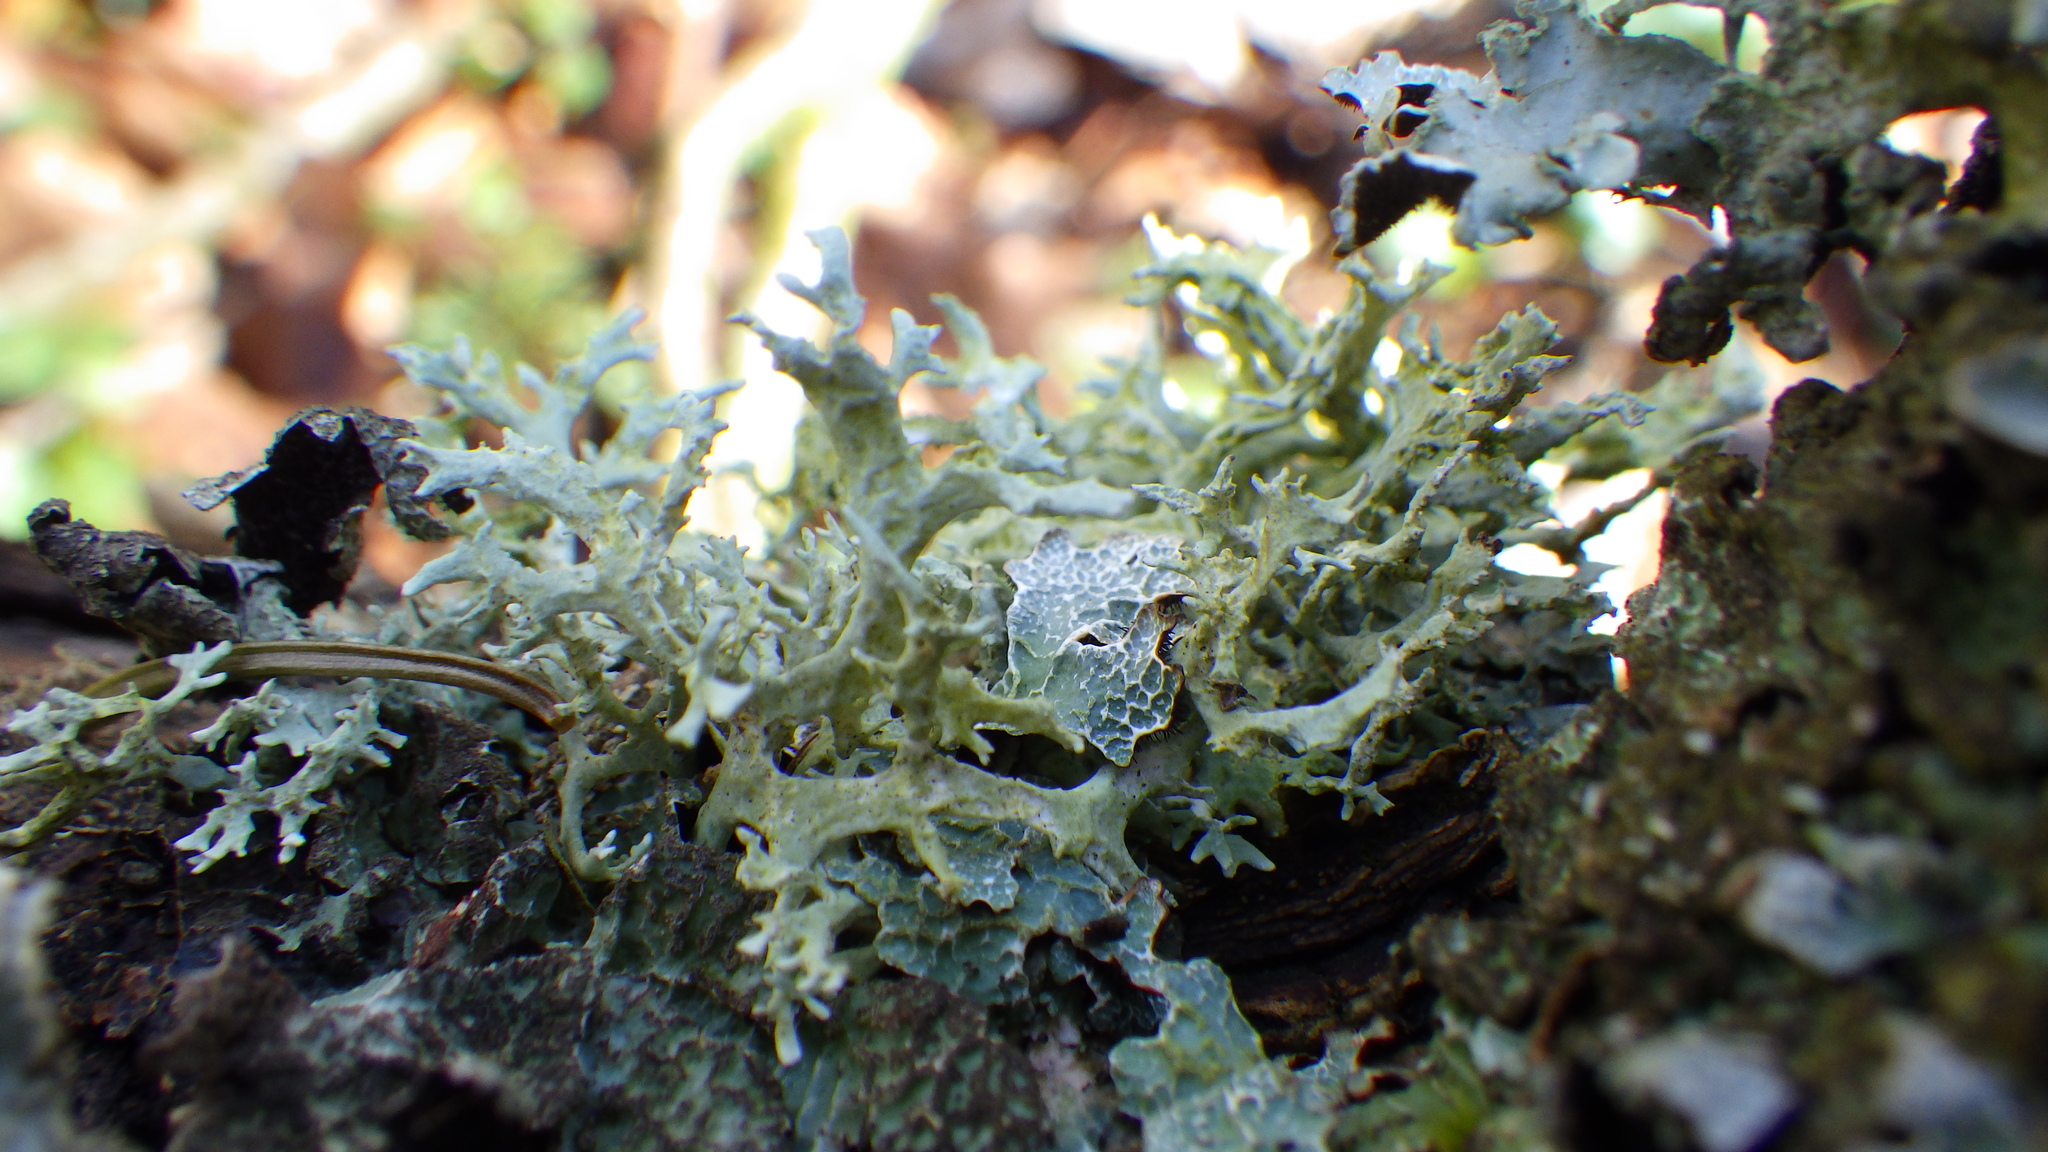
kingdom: Fungi
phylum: Ascomycota
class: Lecanoromycetes
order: Lecanorales
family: Parmeliaceae
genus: Evernia
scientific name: Evernia prunastri
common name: Oak moss
